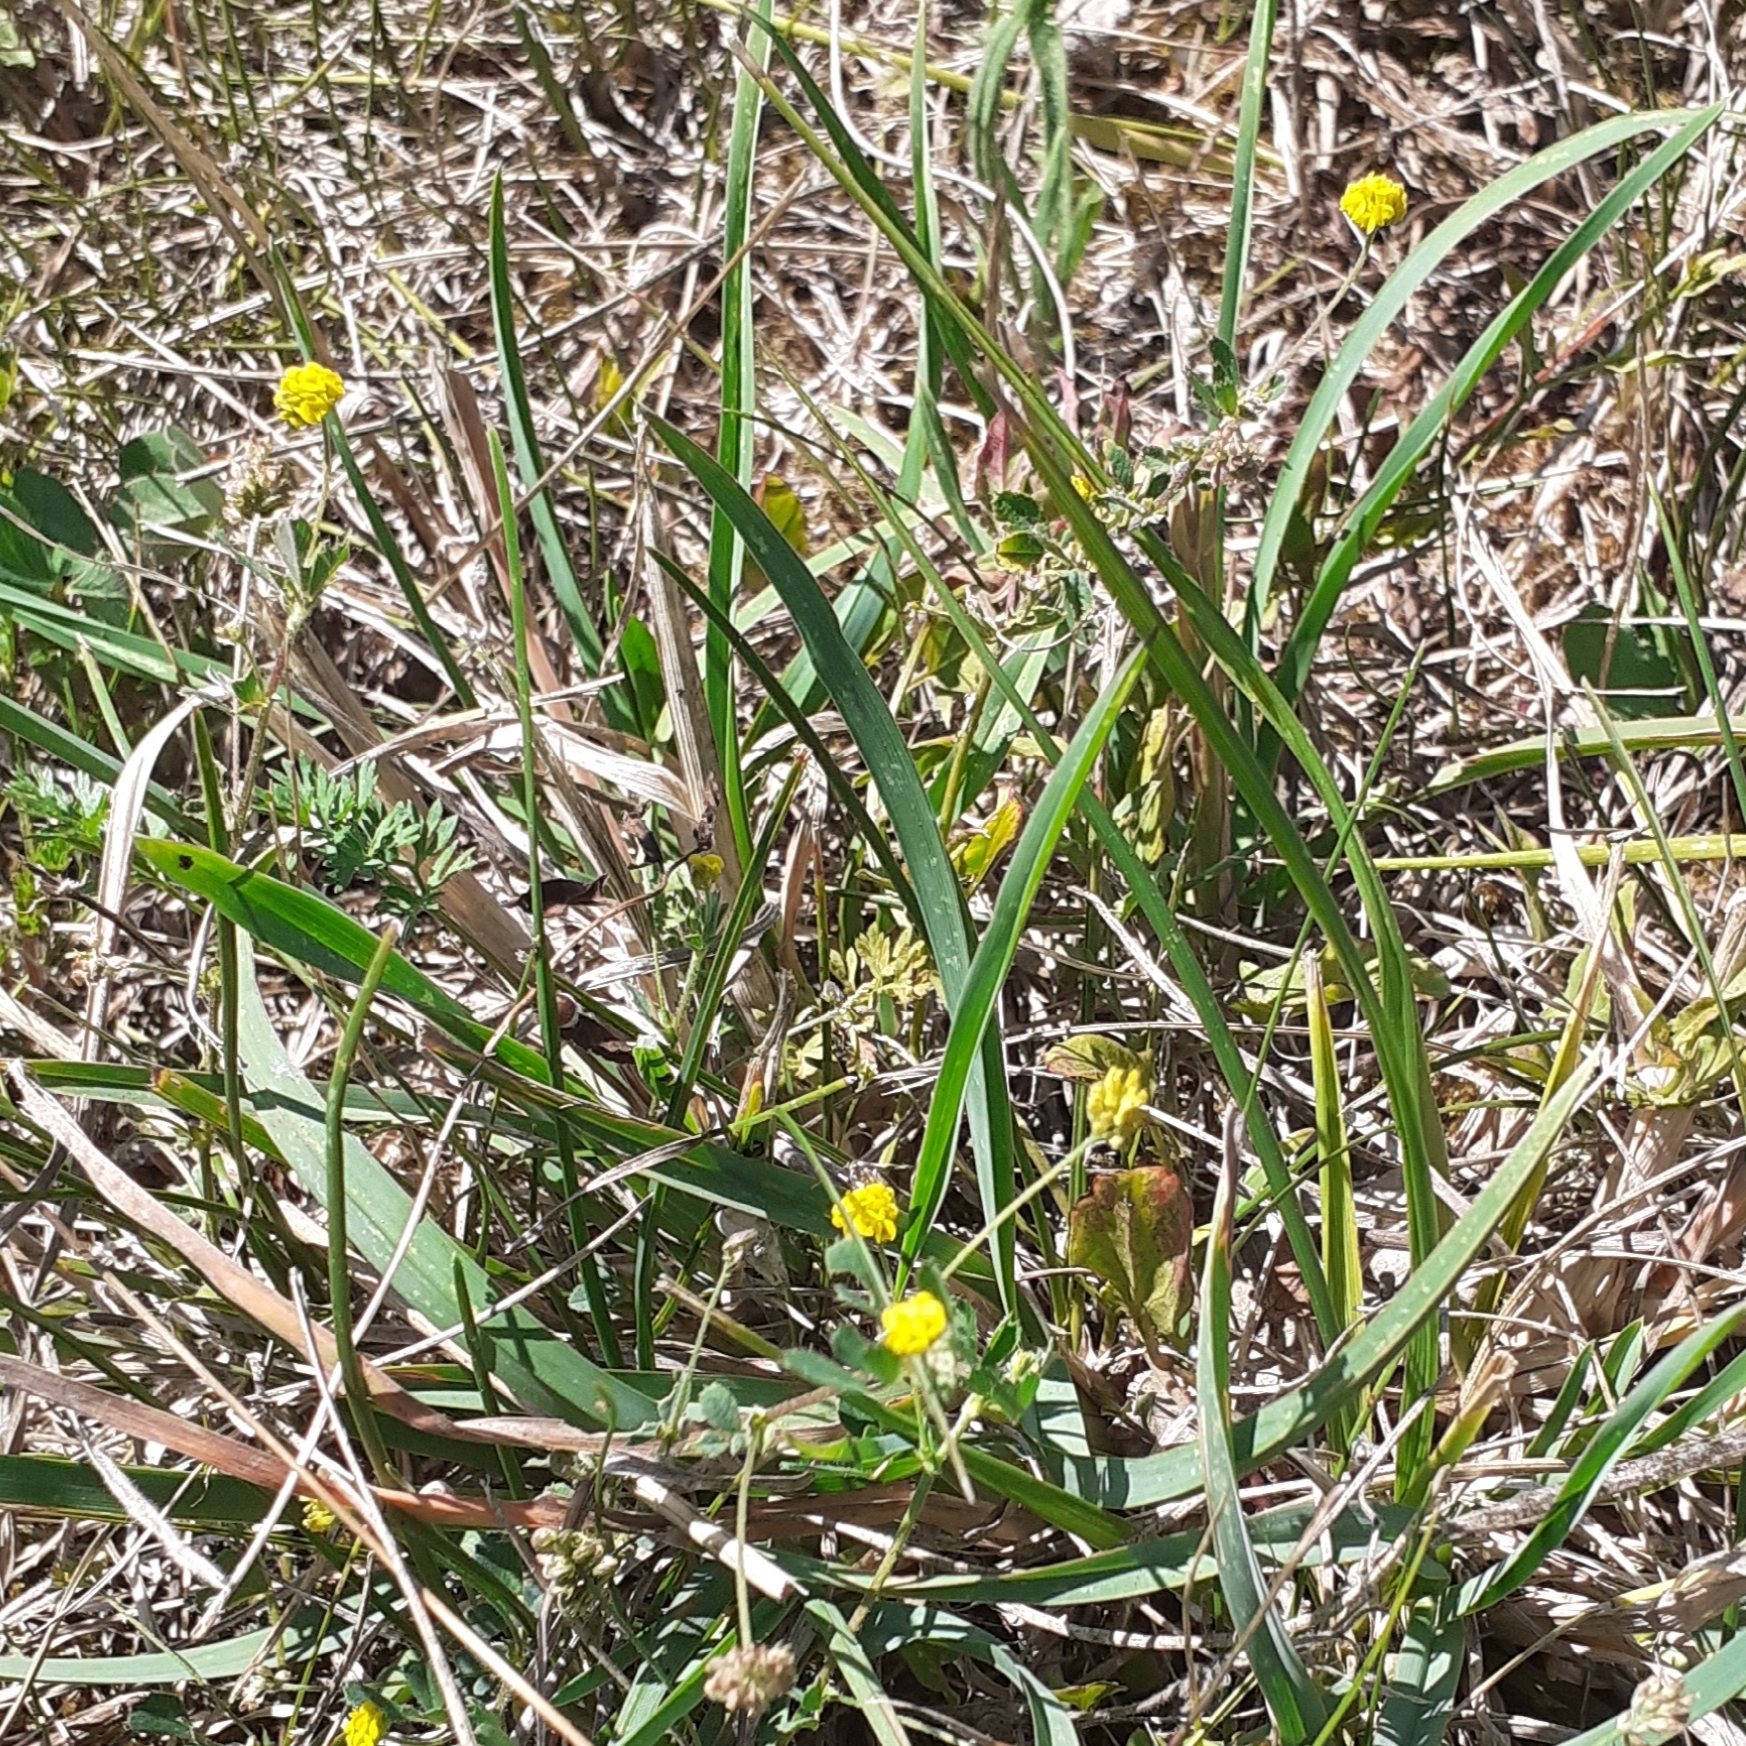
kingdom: Plantae
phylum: Tracheophyta
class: Magnoliopsida
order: Fabales
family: Fabaceae
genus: Medicago
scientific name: Medicago lupulina
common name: Black medick
